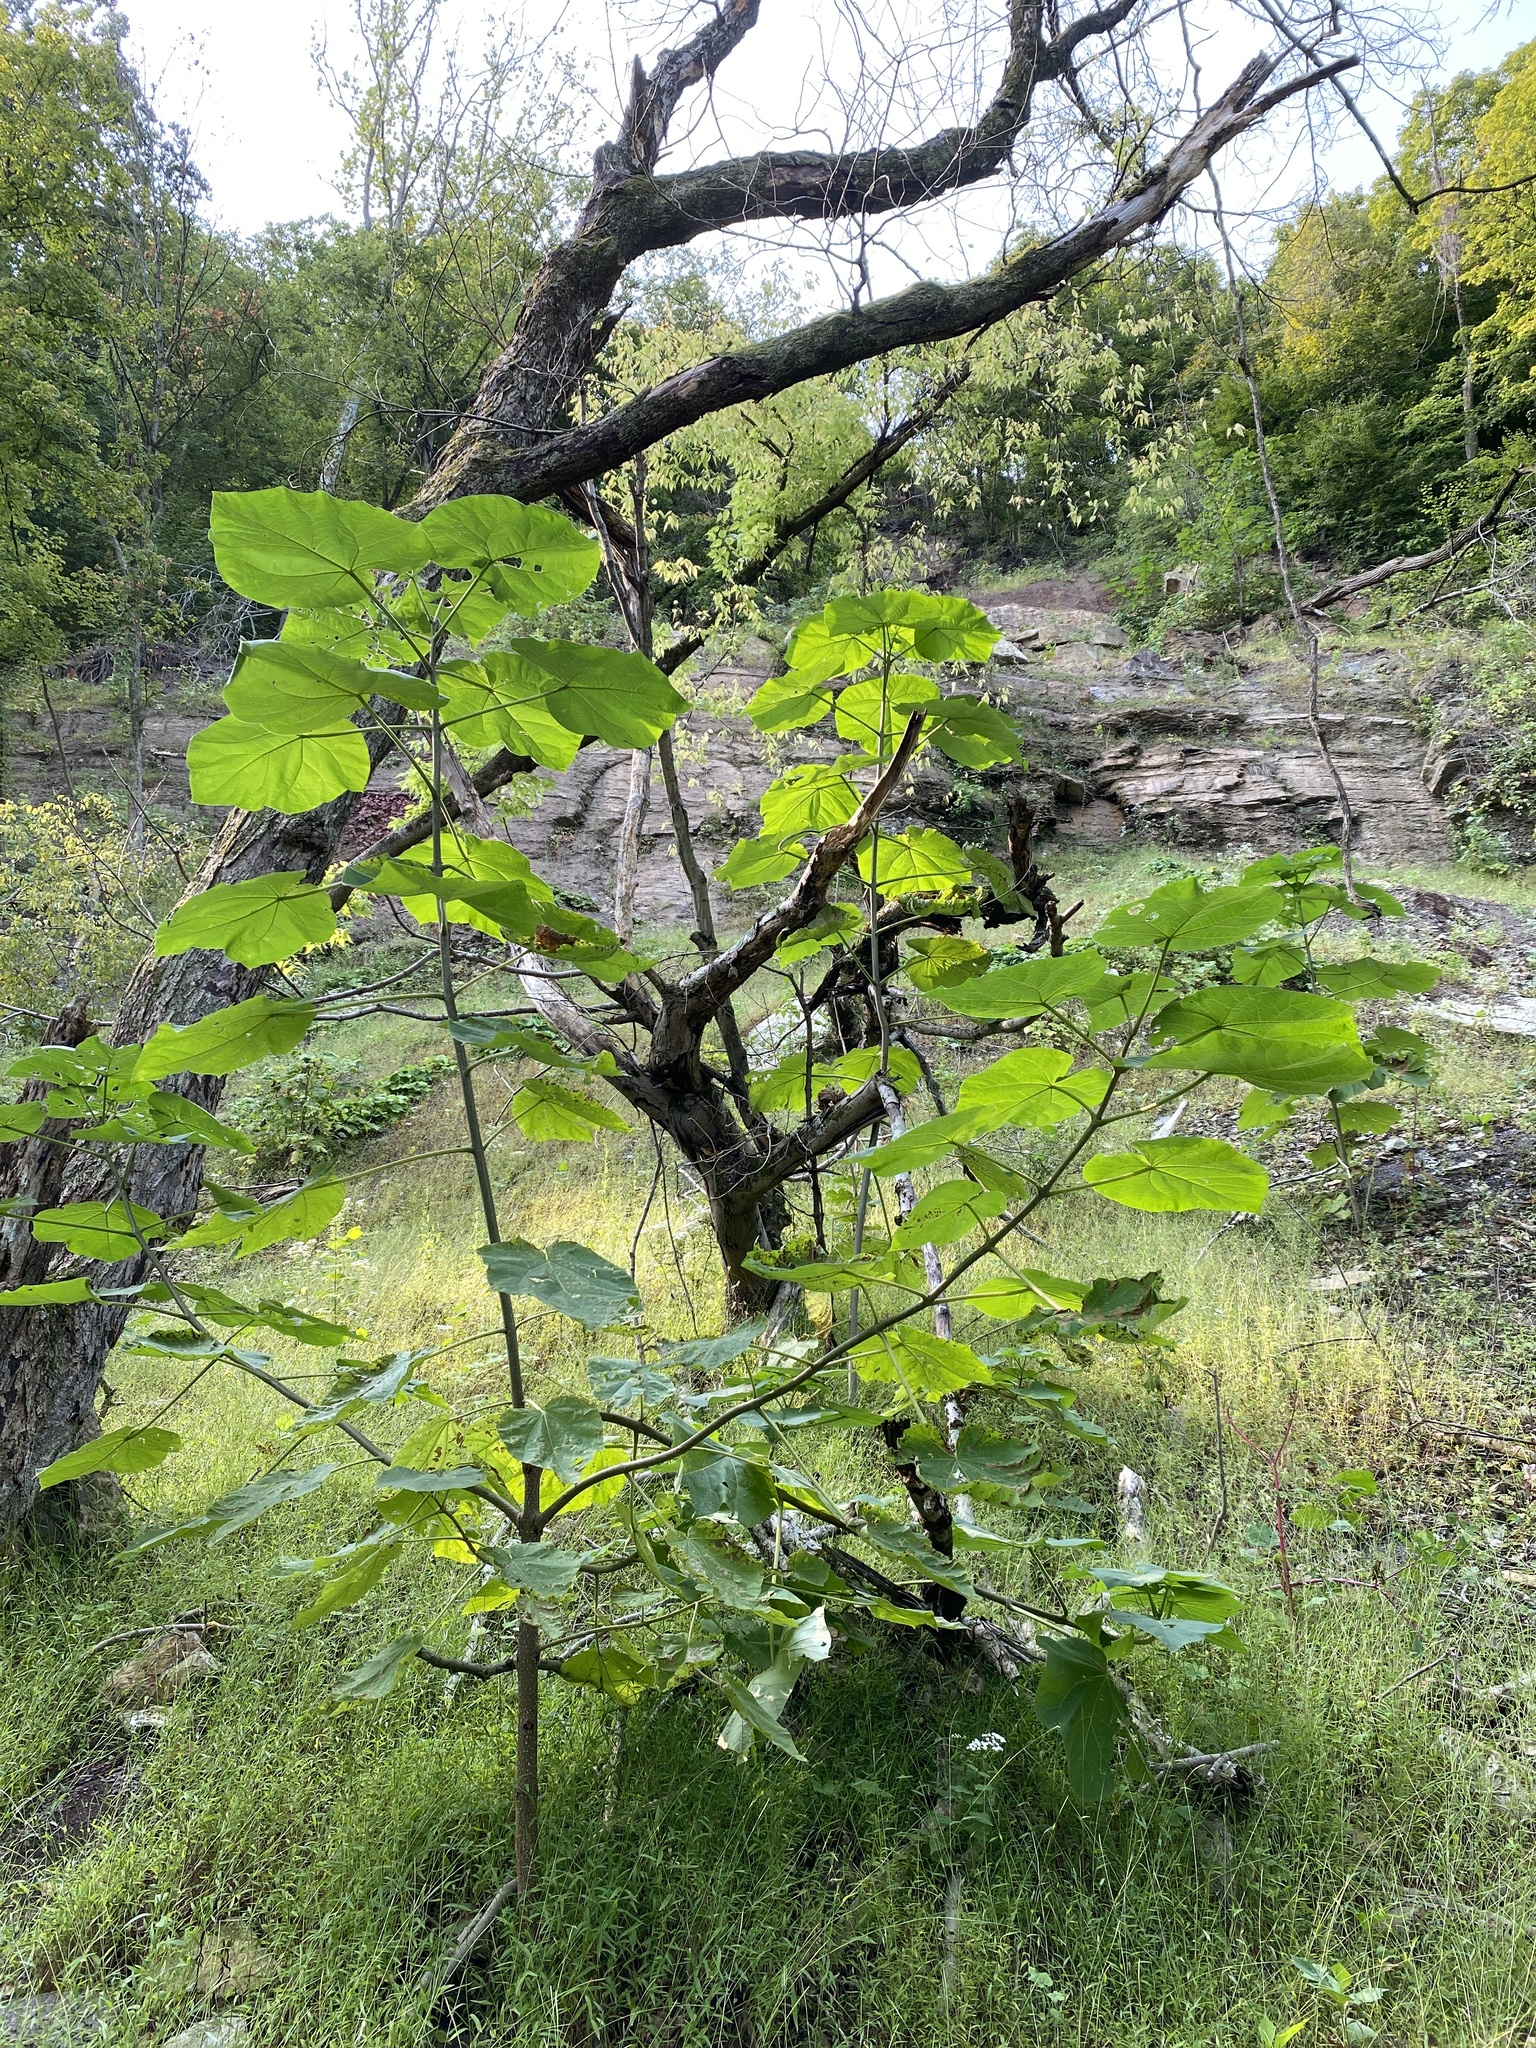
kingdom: Plantae
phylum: Tracheophyta
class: Magnoliopsida
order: Lamiales
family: Paulowniaceae
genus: Paulownia
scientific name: Paulownia tomentosa
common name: Foxglove-tree
